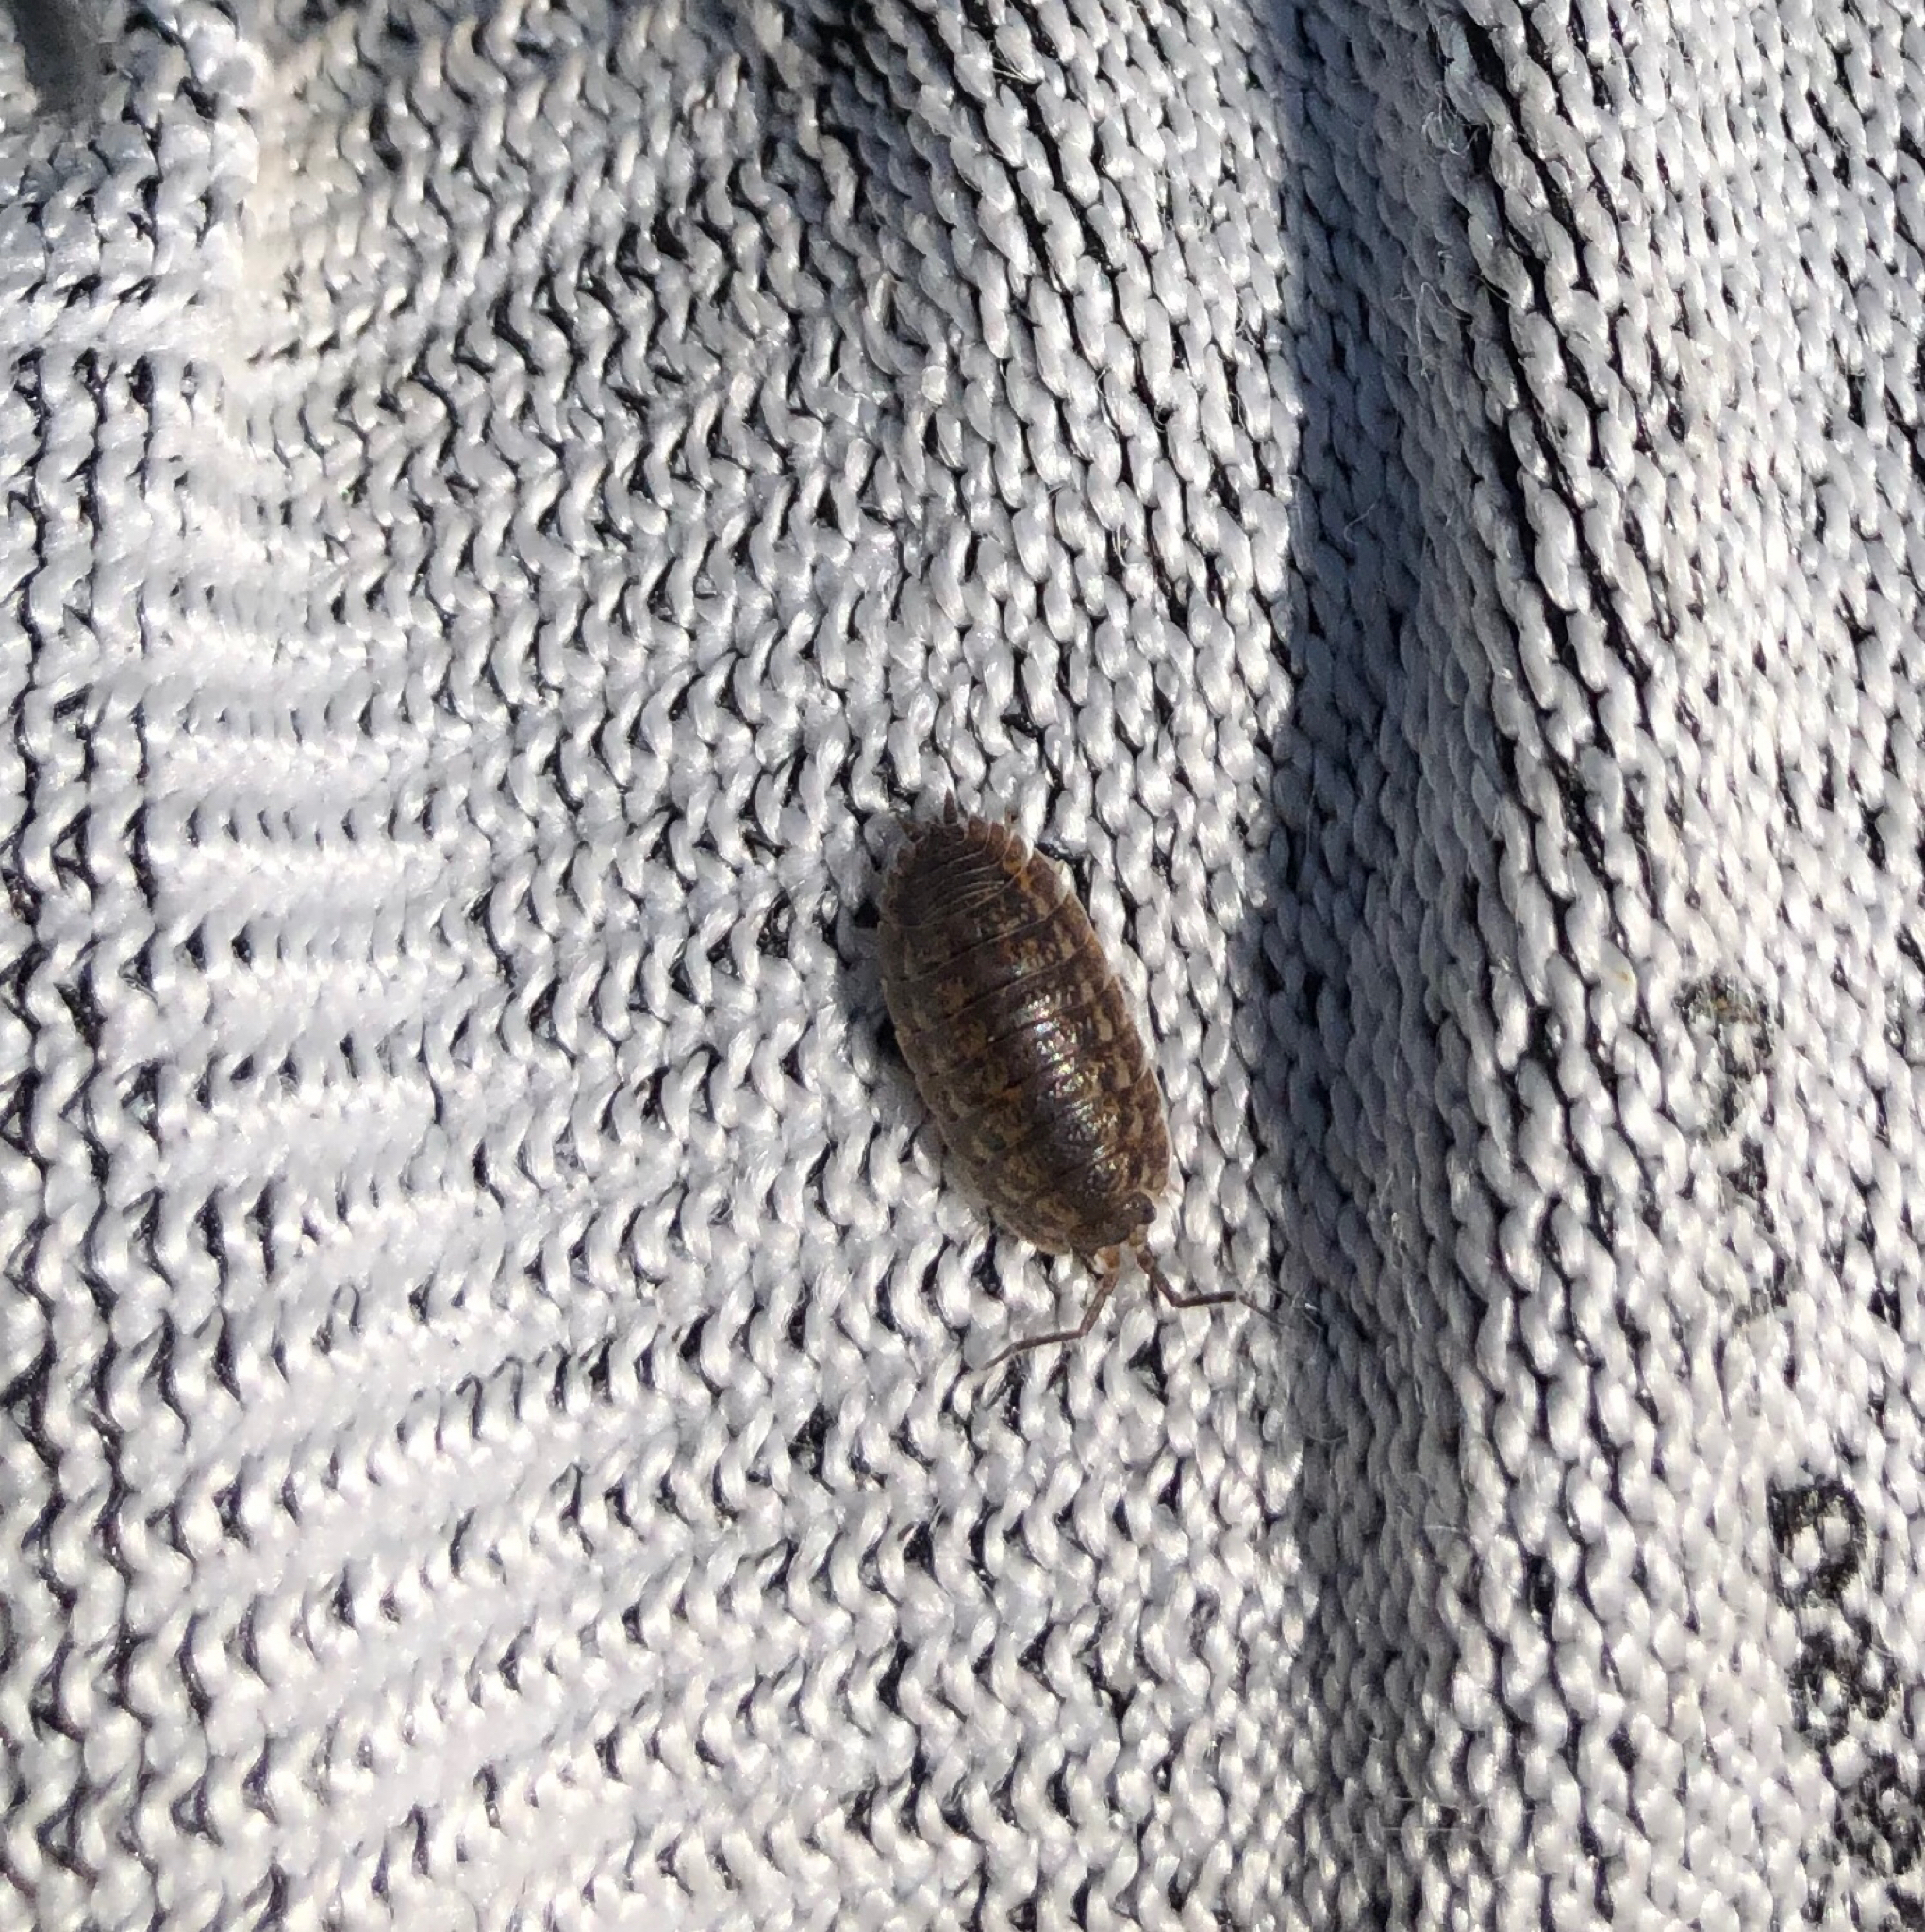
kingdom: Animalia
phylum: Arthropoda
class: Malacostraca
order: Isopoda
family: Trachelipodidae
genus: Trachelipus
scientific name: Trachelipus rathkii
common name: Isopod
